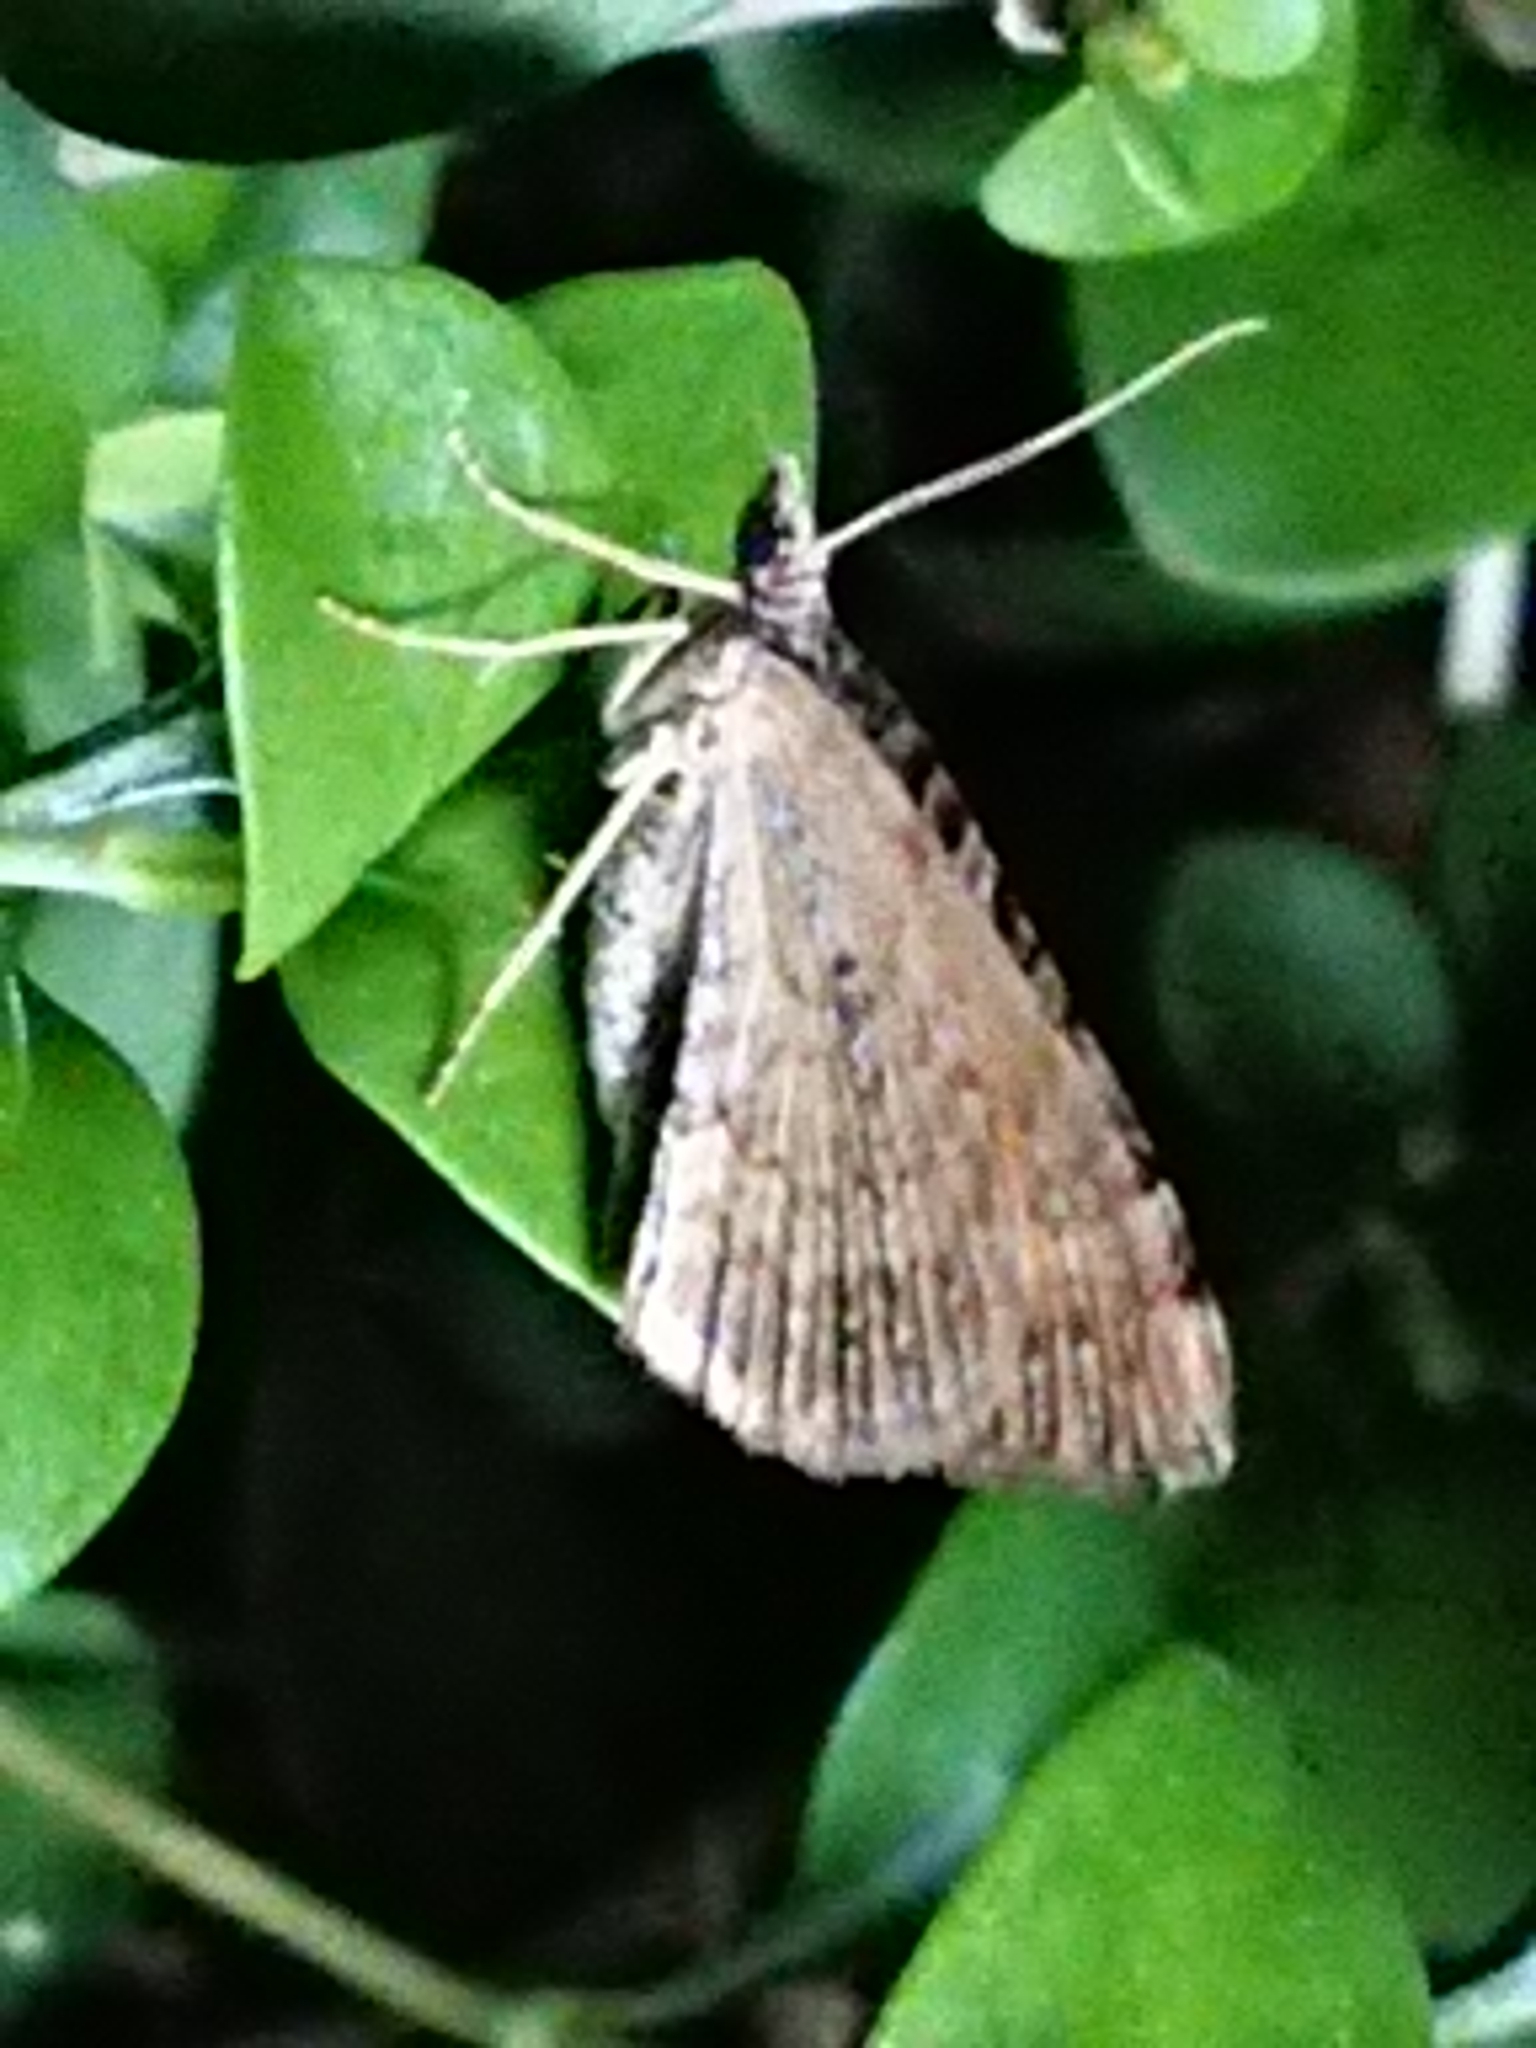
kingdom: Animalia
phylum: Arthropoda
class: Insecta
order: Lepidoptera
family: Geometridae
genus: Xanthorhoe
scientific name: Xanthorhoe semifissata
